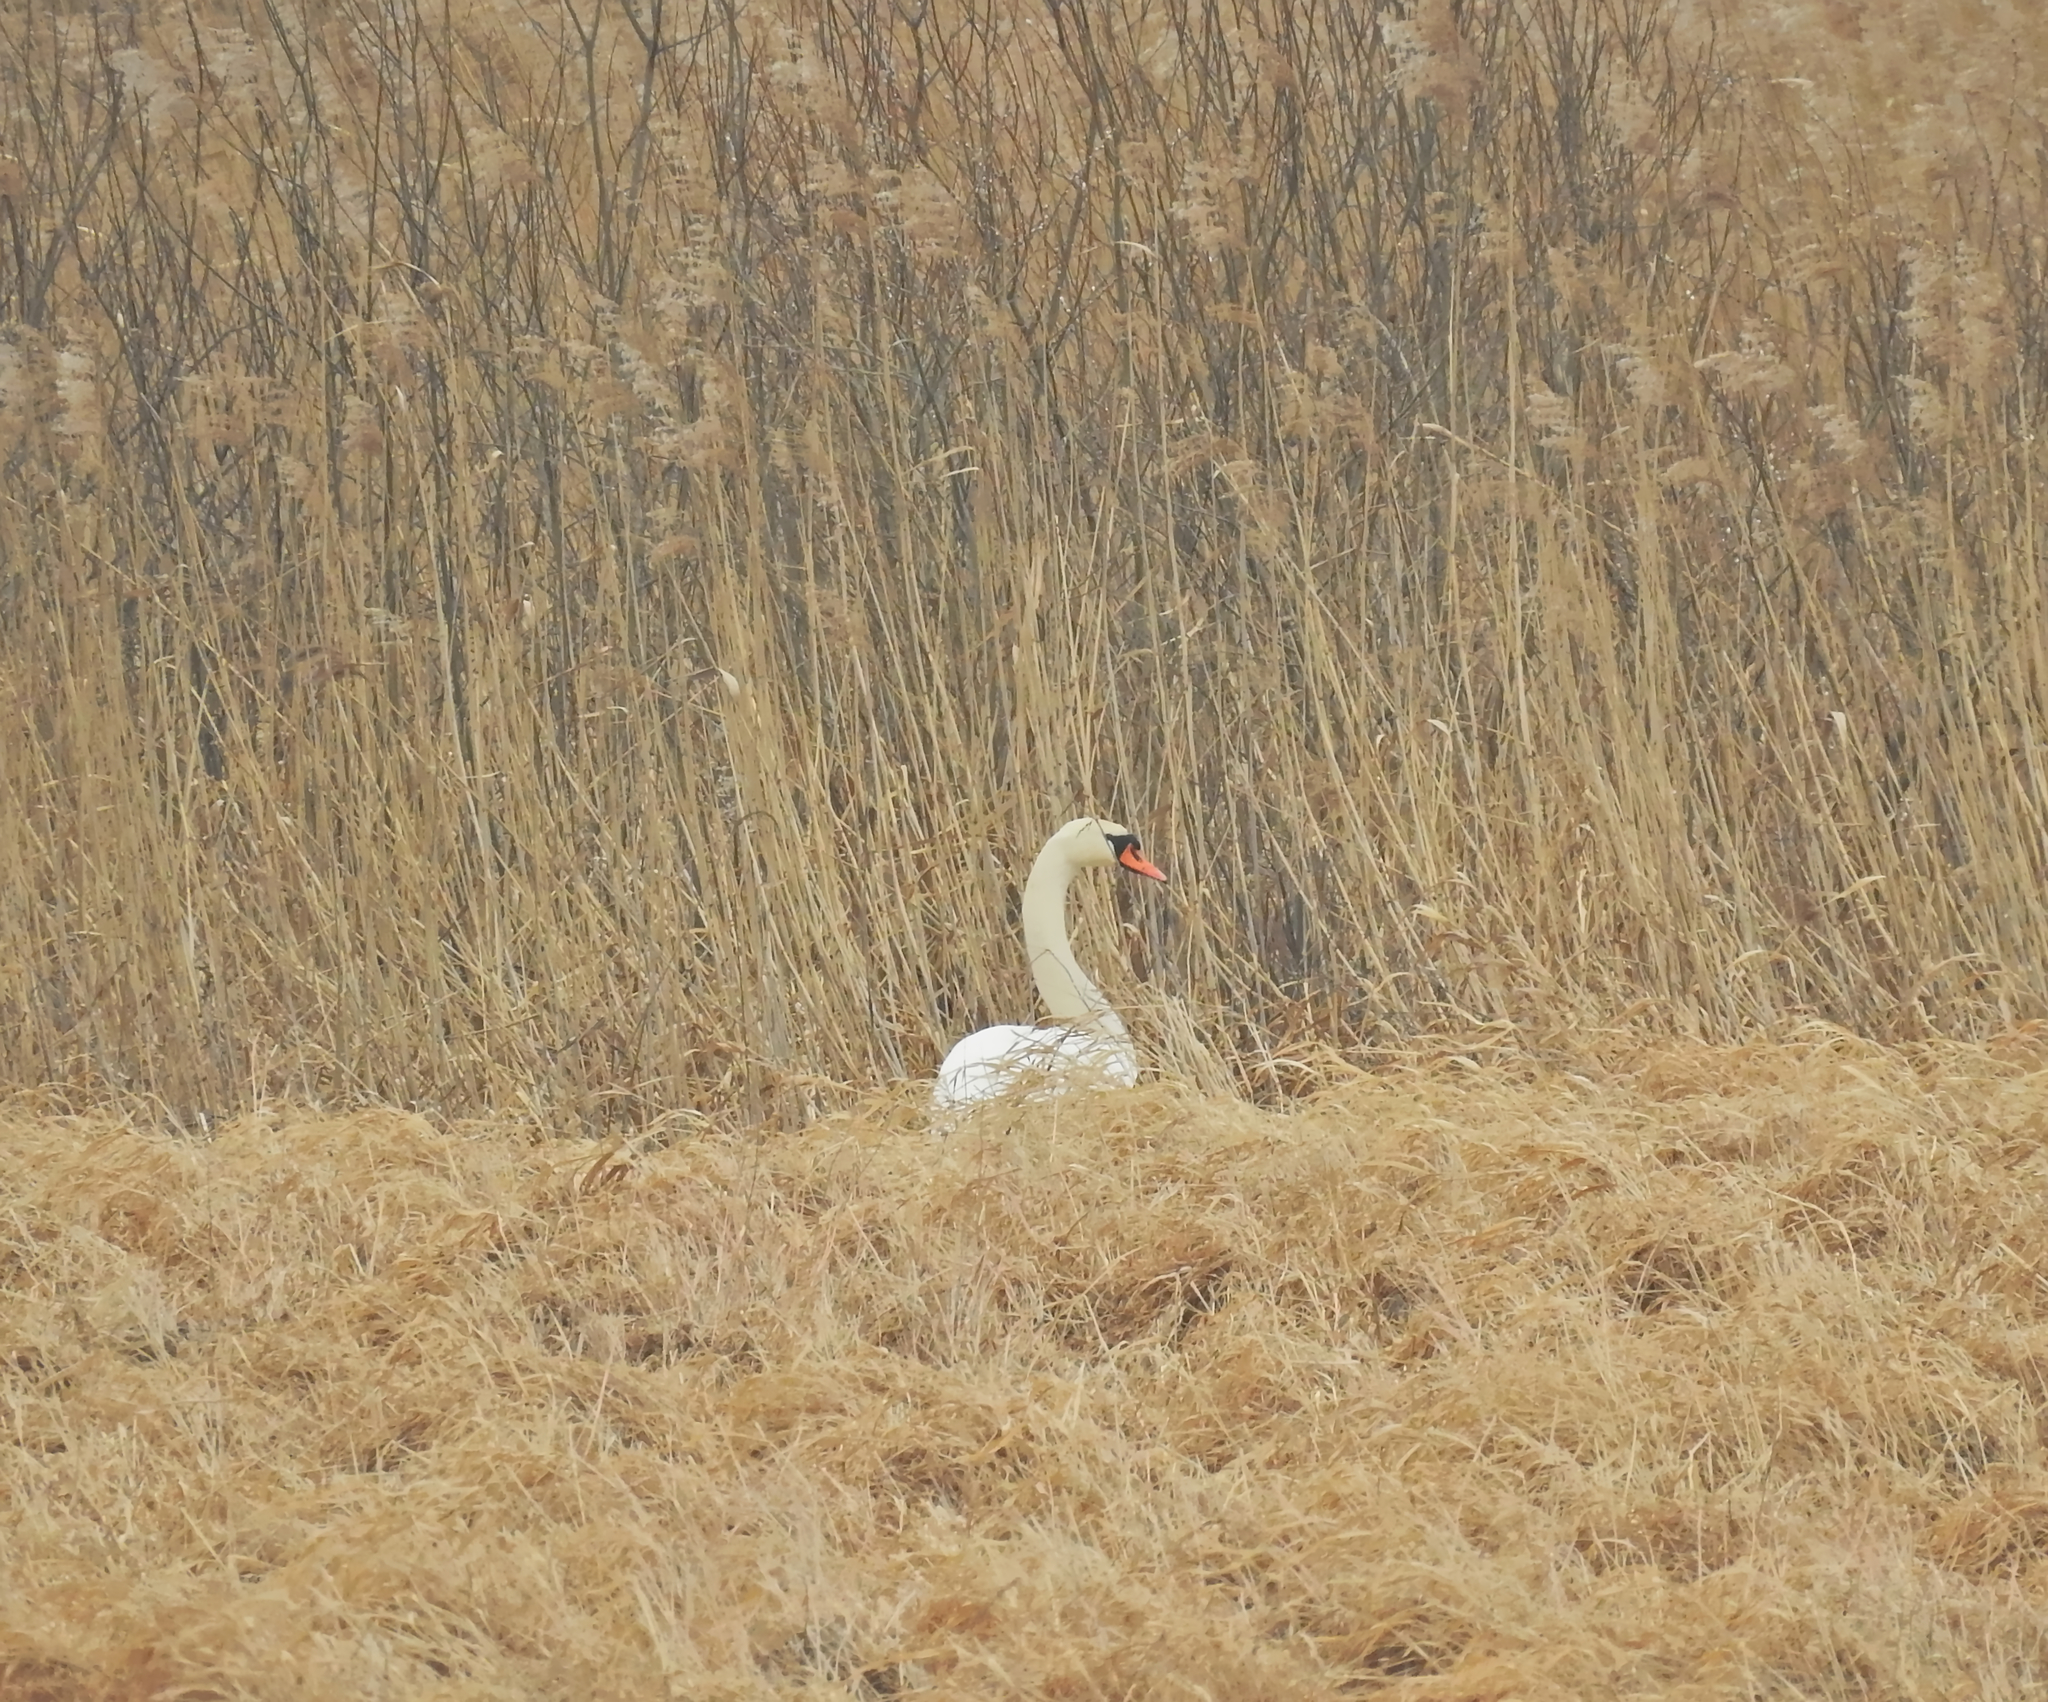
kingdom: Animalia
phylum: Chordata
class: Aves
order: Anseriformes
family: Anatidae
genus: Cygnus
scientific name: Cygnus olor
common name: Mute swan
